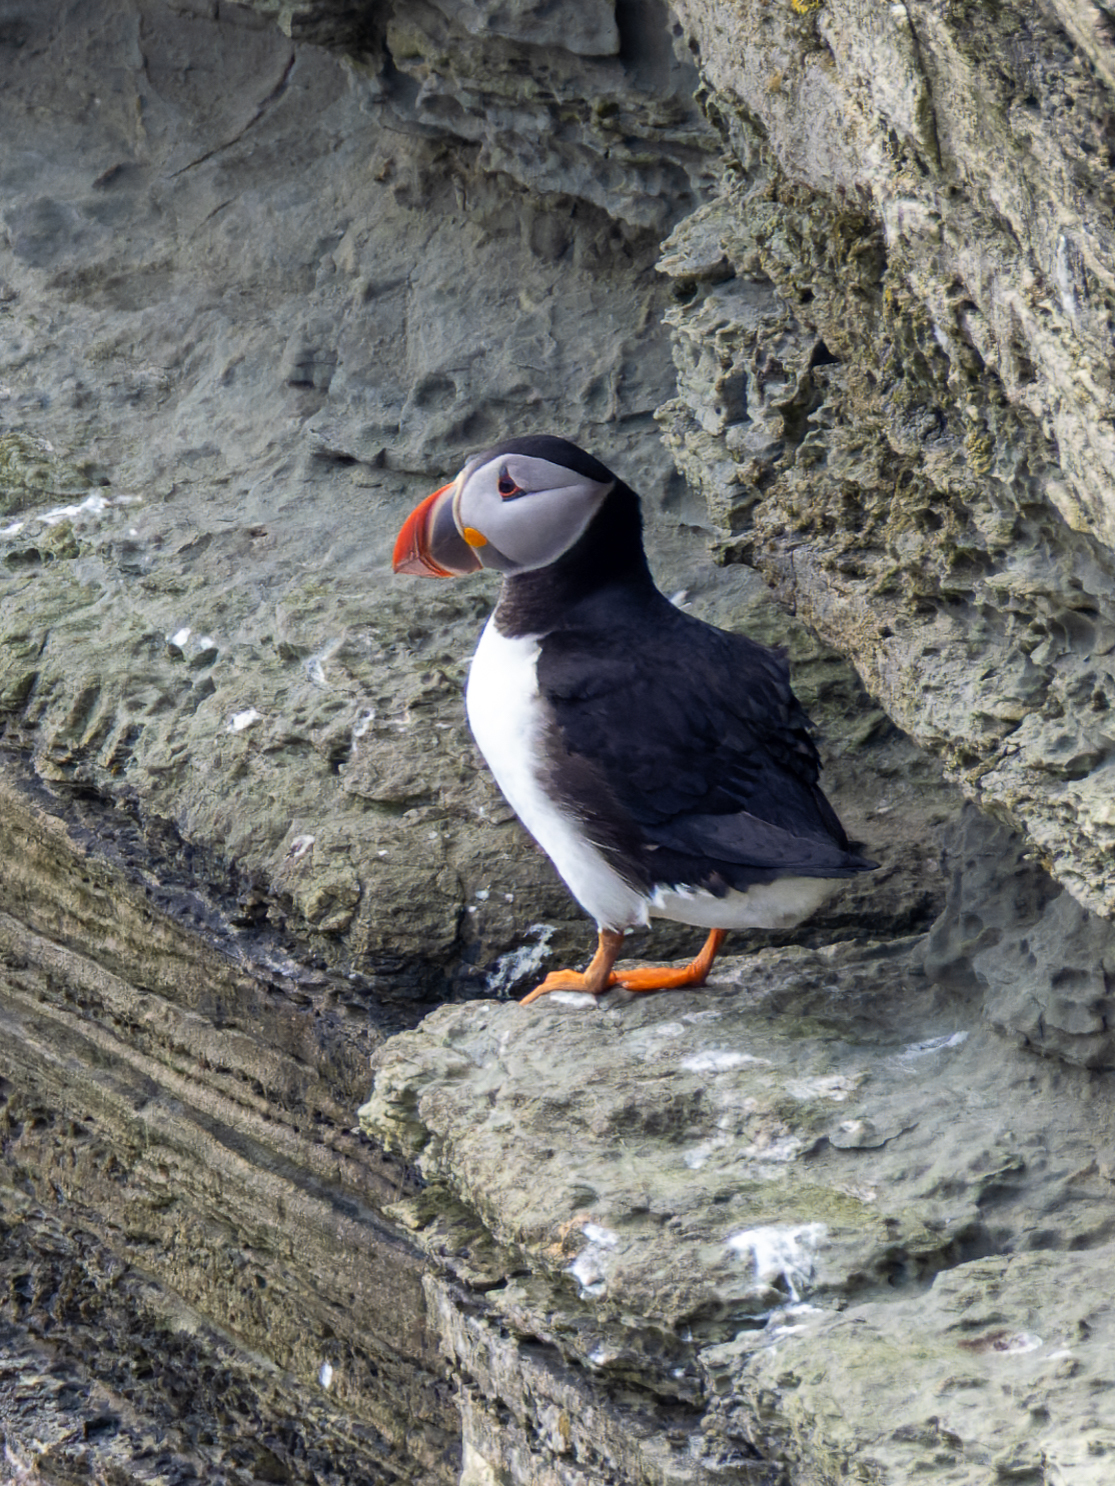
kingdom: Animalia
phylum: Chordata
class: Aves
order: Charadriiformes
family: Alcidae
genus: Fratercula
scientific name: Fratercula arctica
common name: Atlantic puffin
